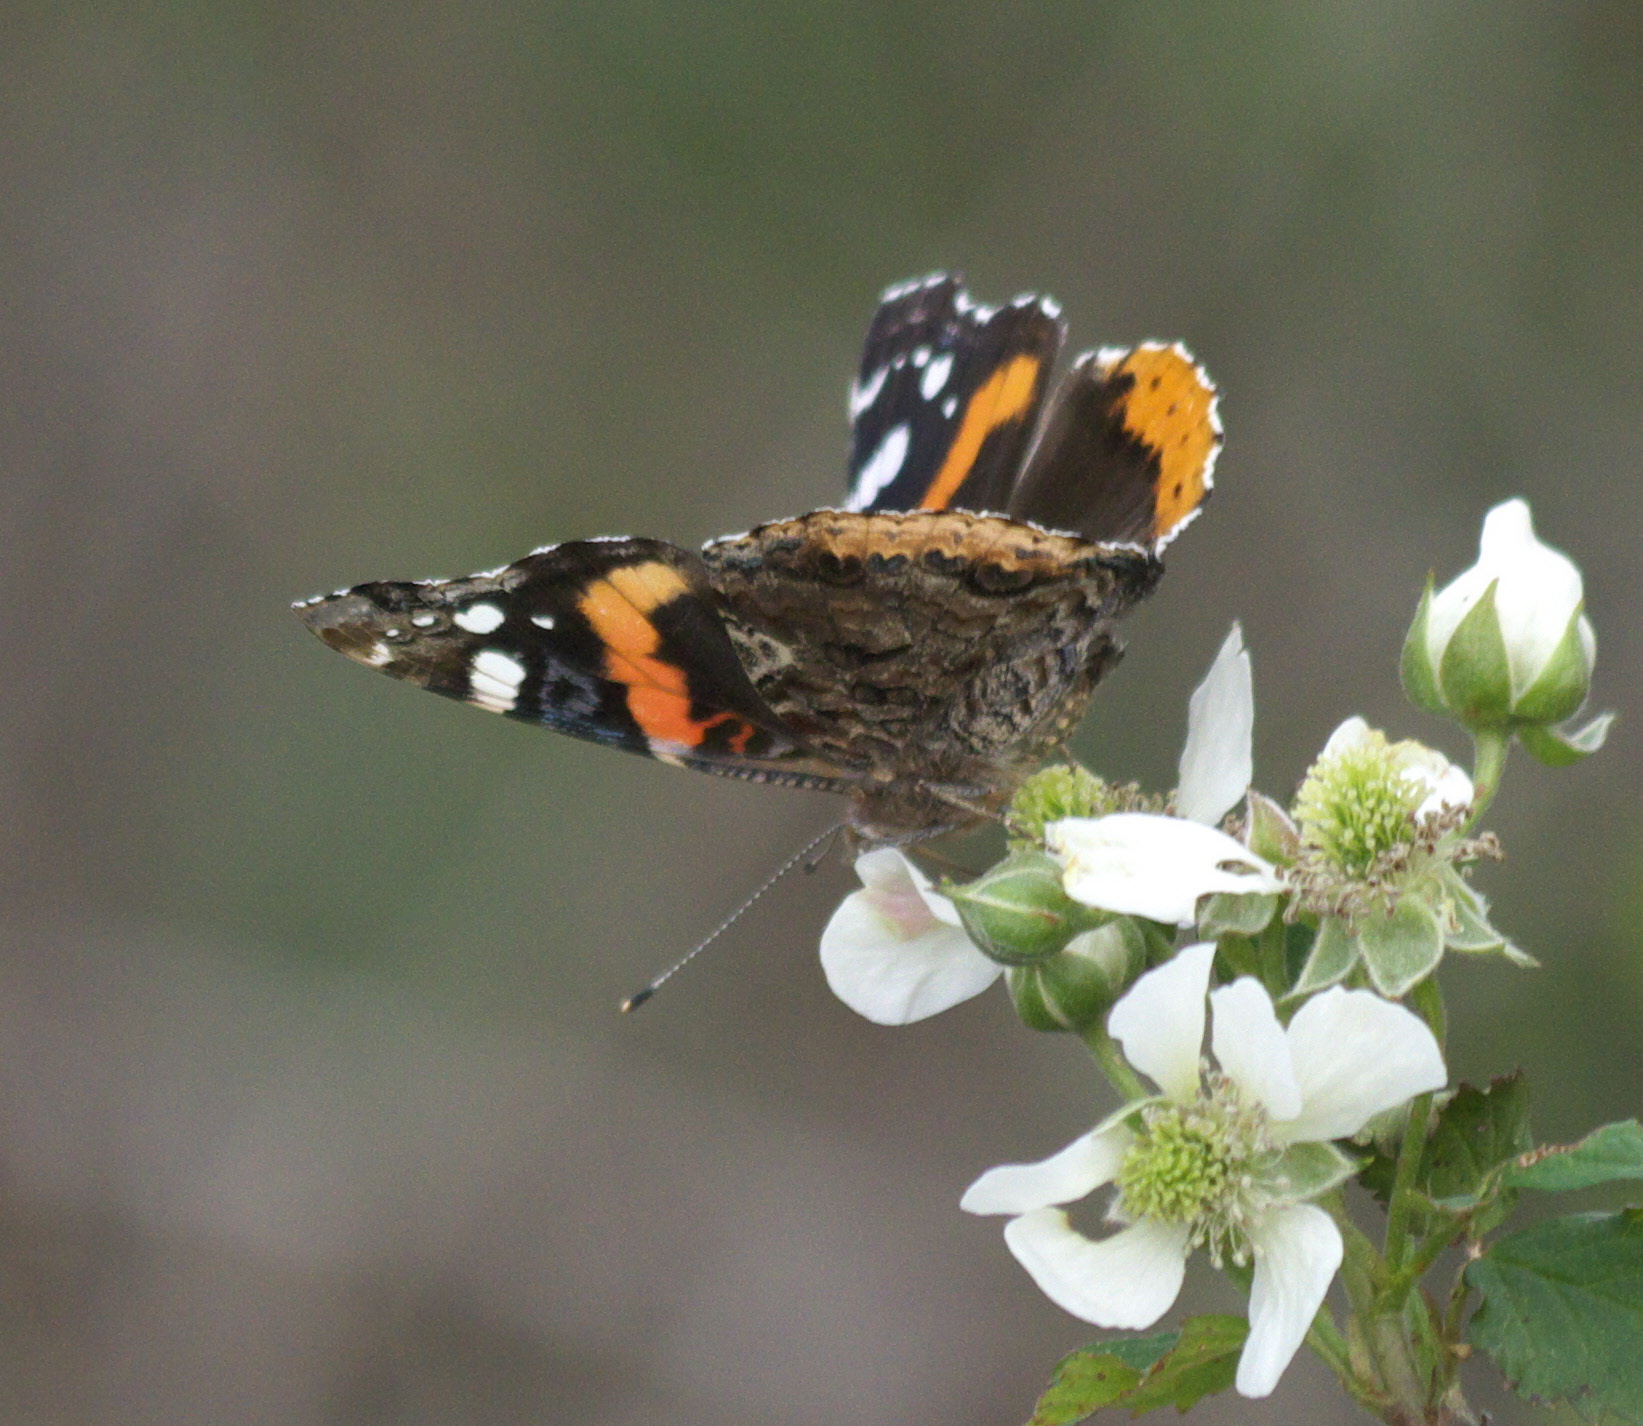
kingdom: Animalia
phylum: Arthropoda
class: Insecta
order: Lepidoptera
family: Nymphalidae
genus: Vanessa
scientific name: Vanessa atalanta
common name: Red admiral
